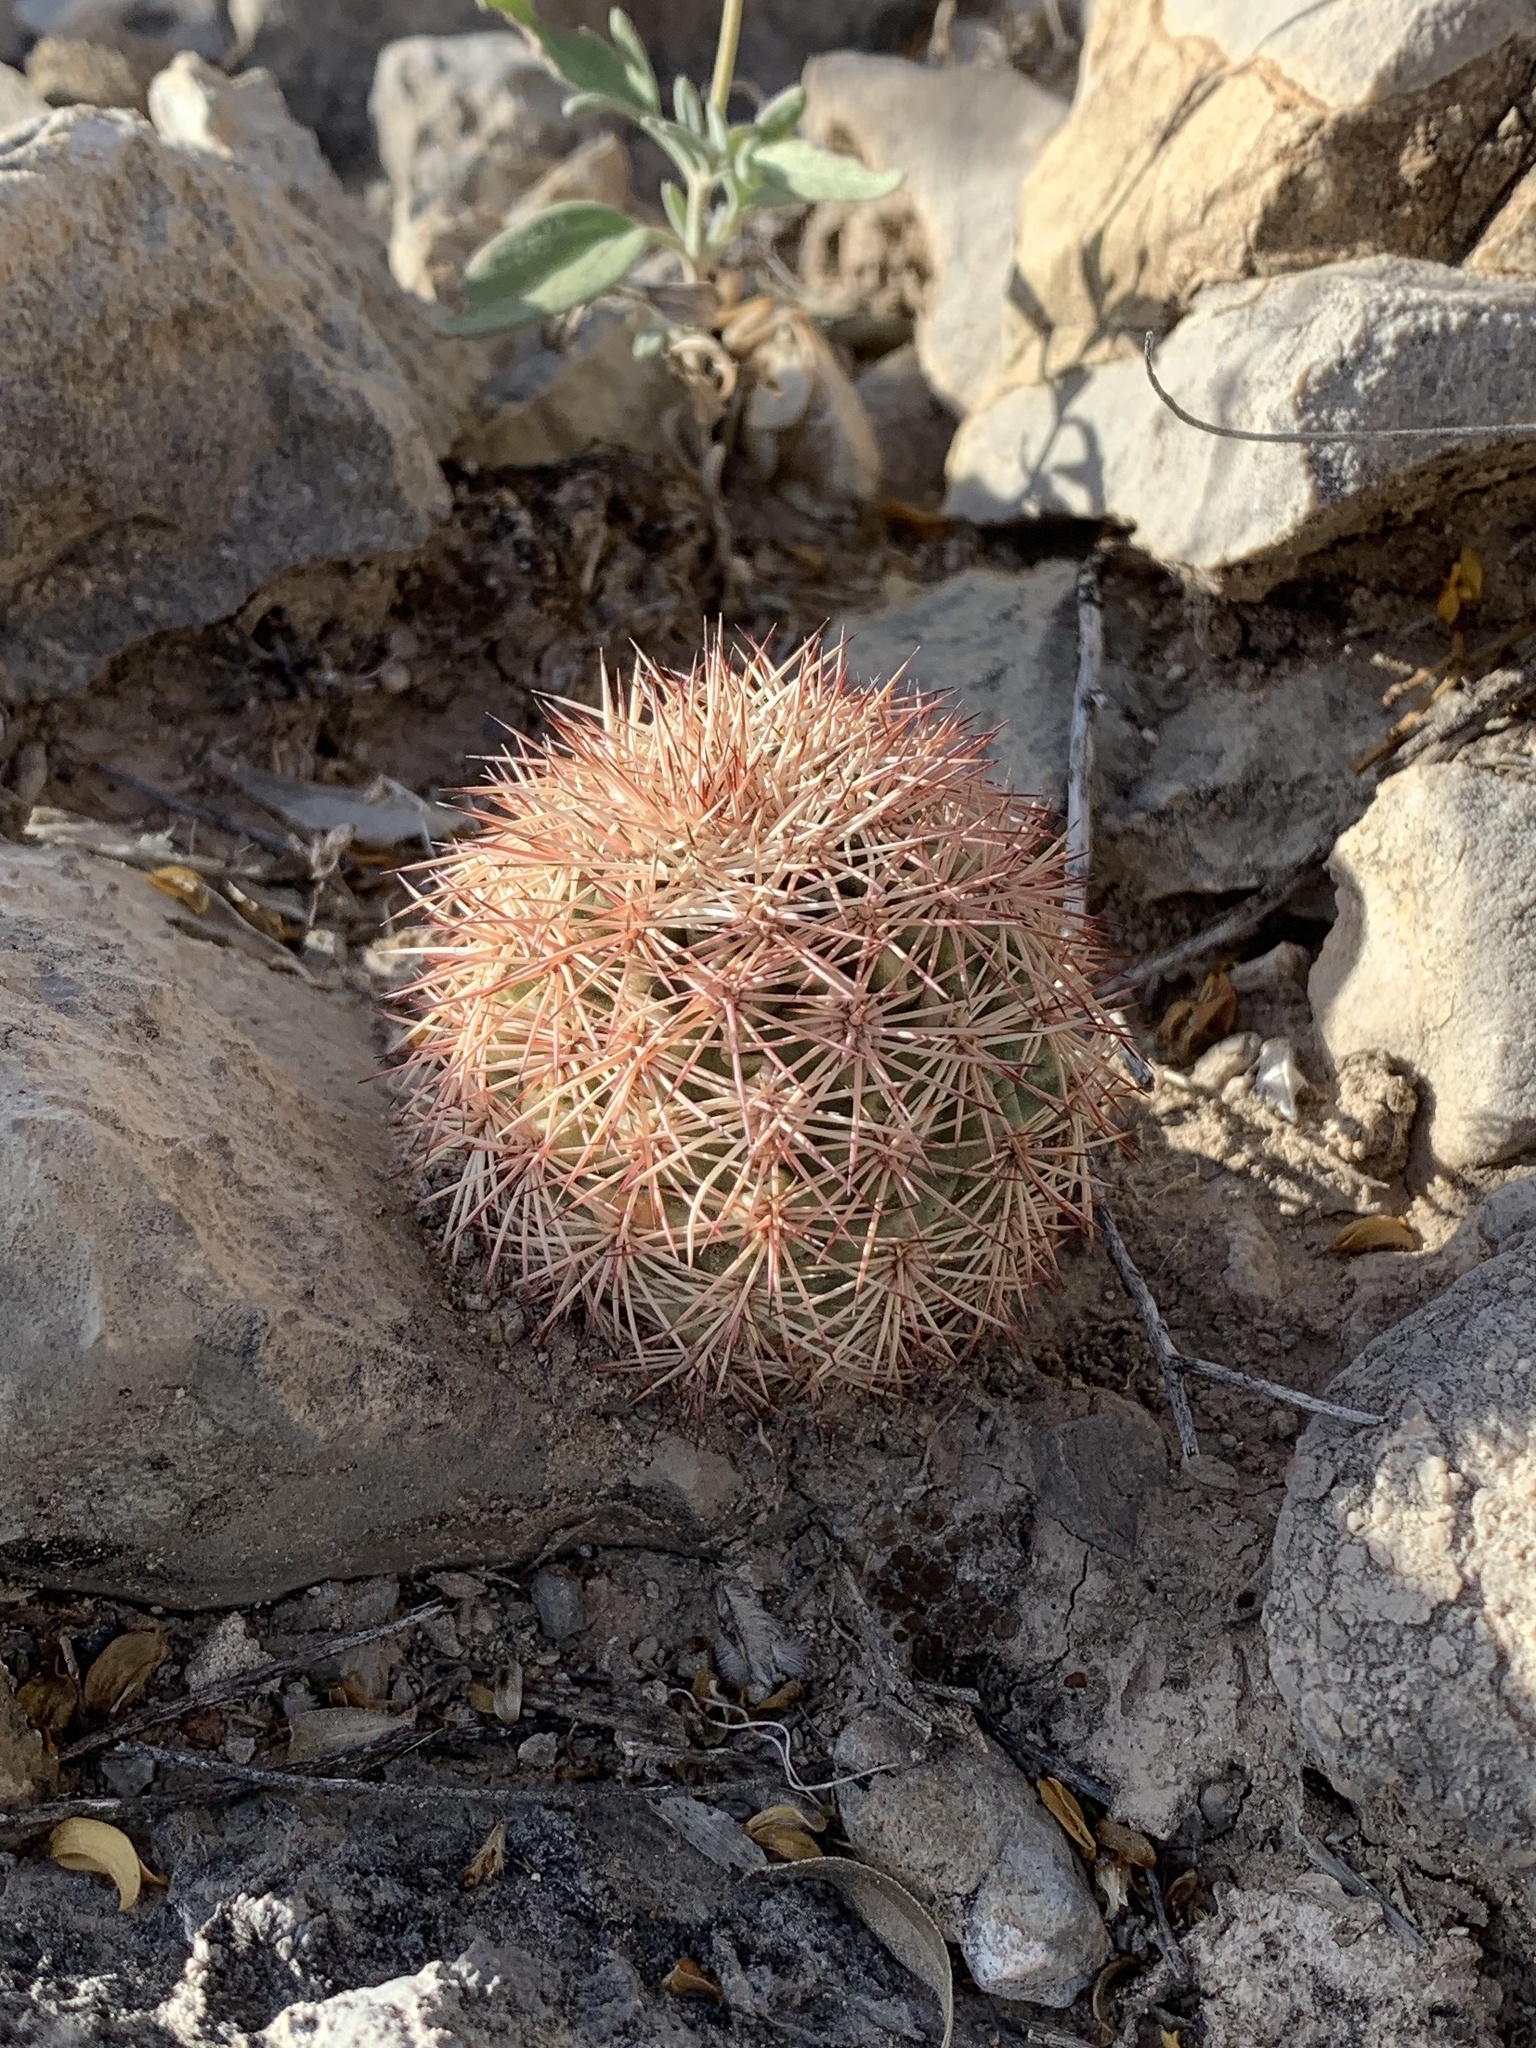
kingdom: Plantae
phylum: Tracheophyta
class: Magnoliopsida
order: Caryophyllales
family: Cactaceae
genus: Echinocereus
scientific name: Echinocereus dasyacanthus
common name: Spiny hedgehog cactus
